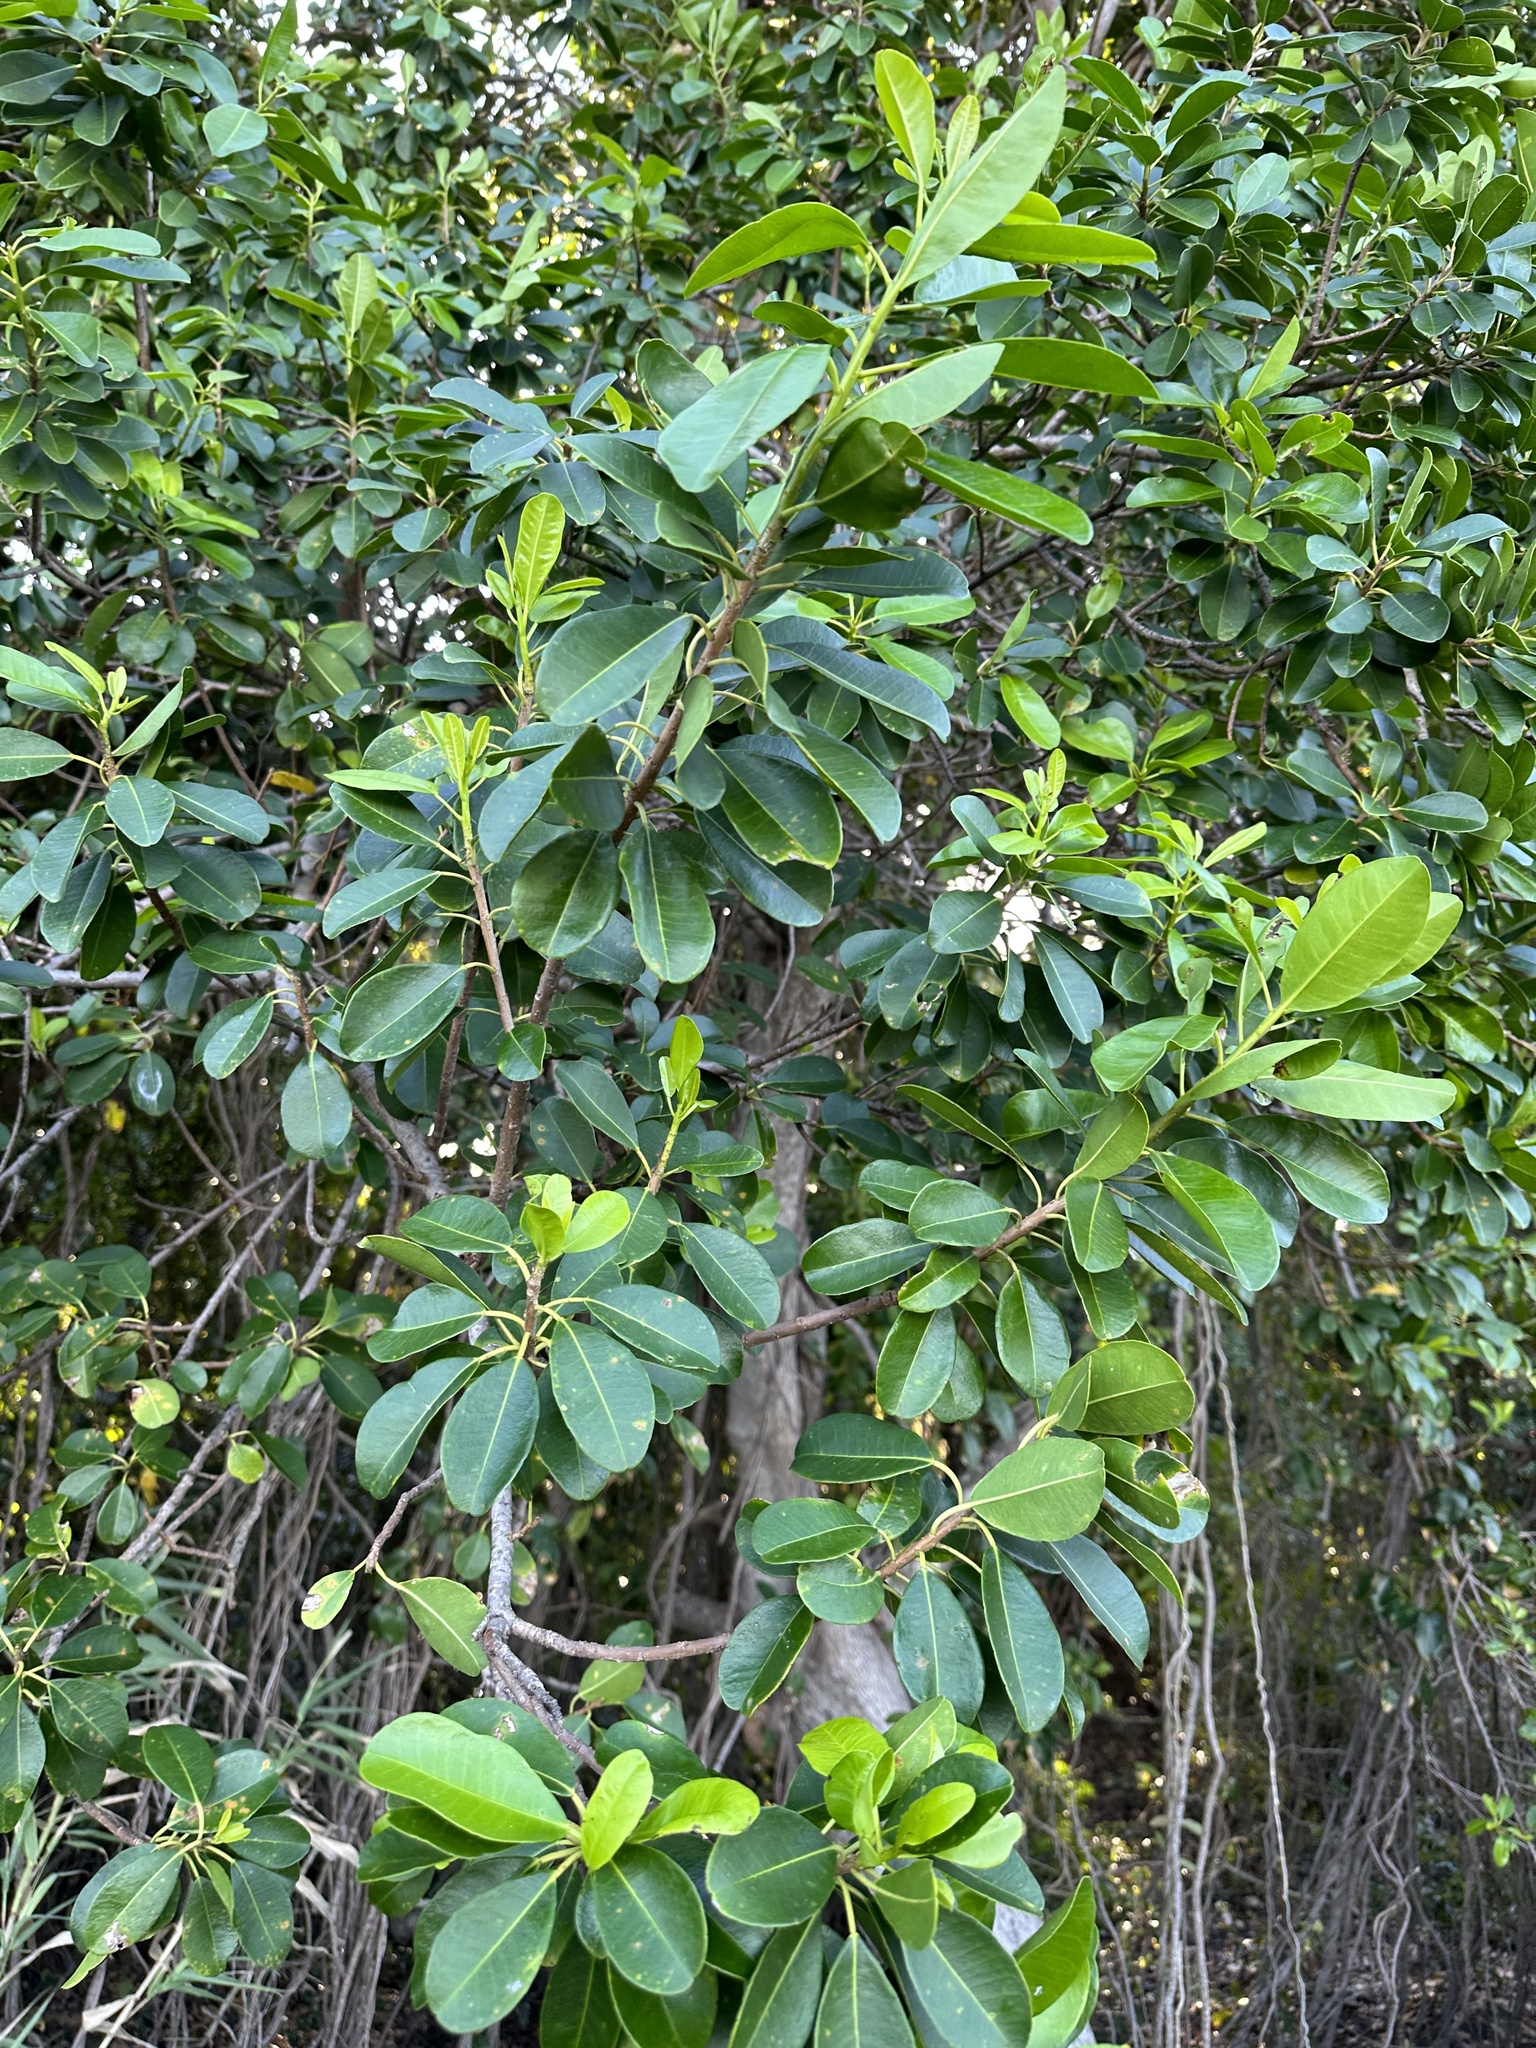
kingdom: Plantae
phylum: Tracheophyta
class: Magnoliopsida
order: Malpighiales
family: Euphorbiaceae
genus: Excoecaria
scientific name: Excoecaria agallocha
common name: River poisontree
